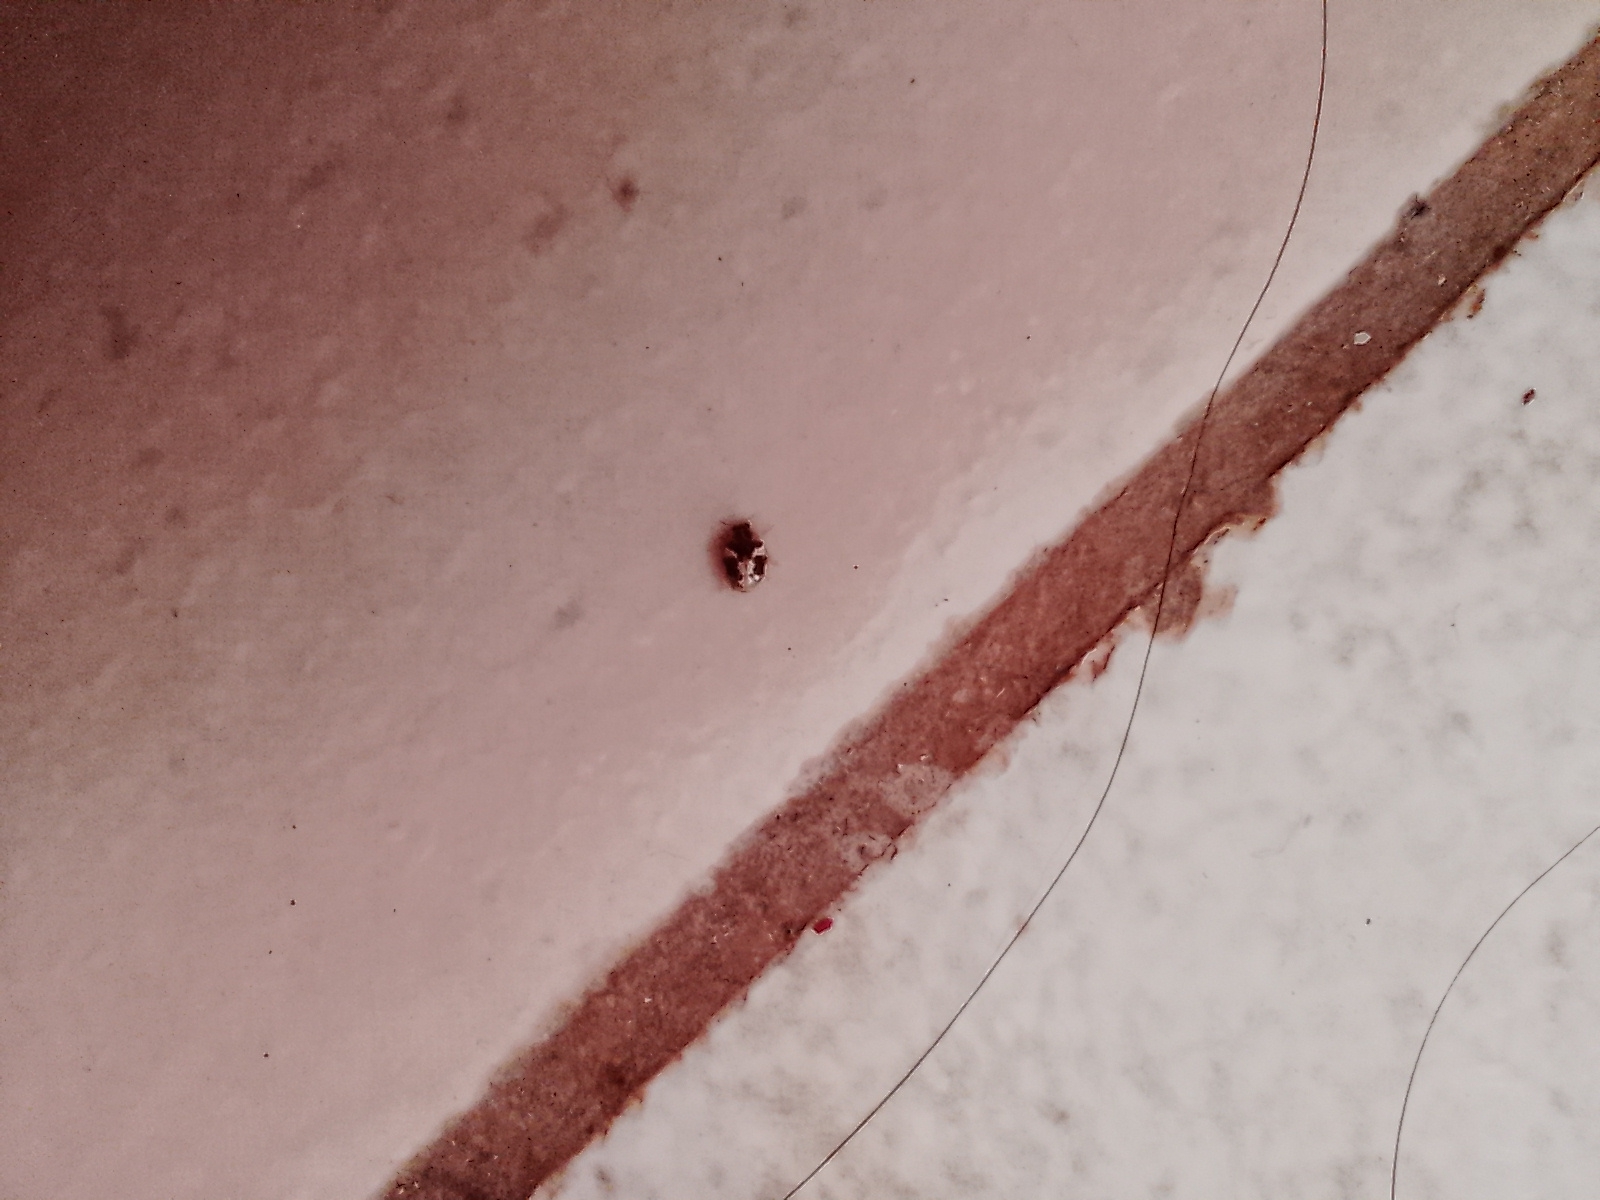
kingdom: Animalia
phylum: Arthropoda
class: Insecta
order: Coleoptera
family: Coccinellidae
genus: Psyllobora
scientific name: Psyllobora
